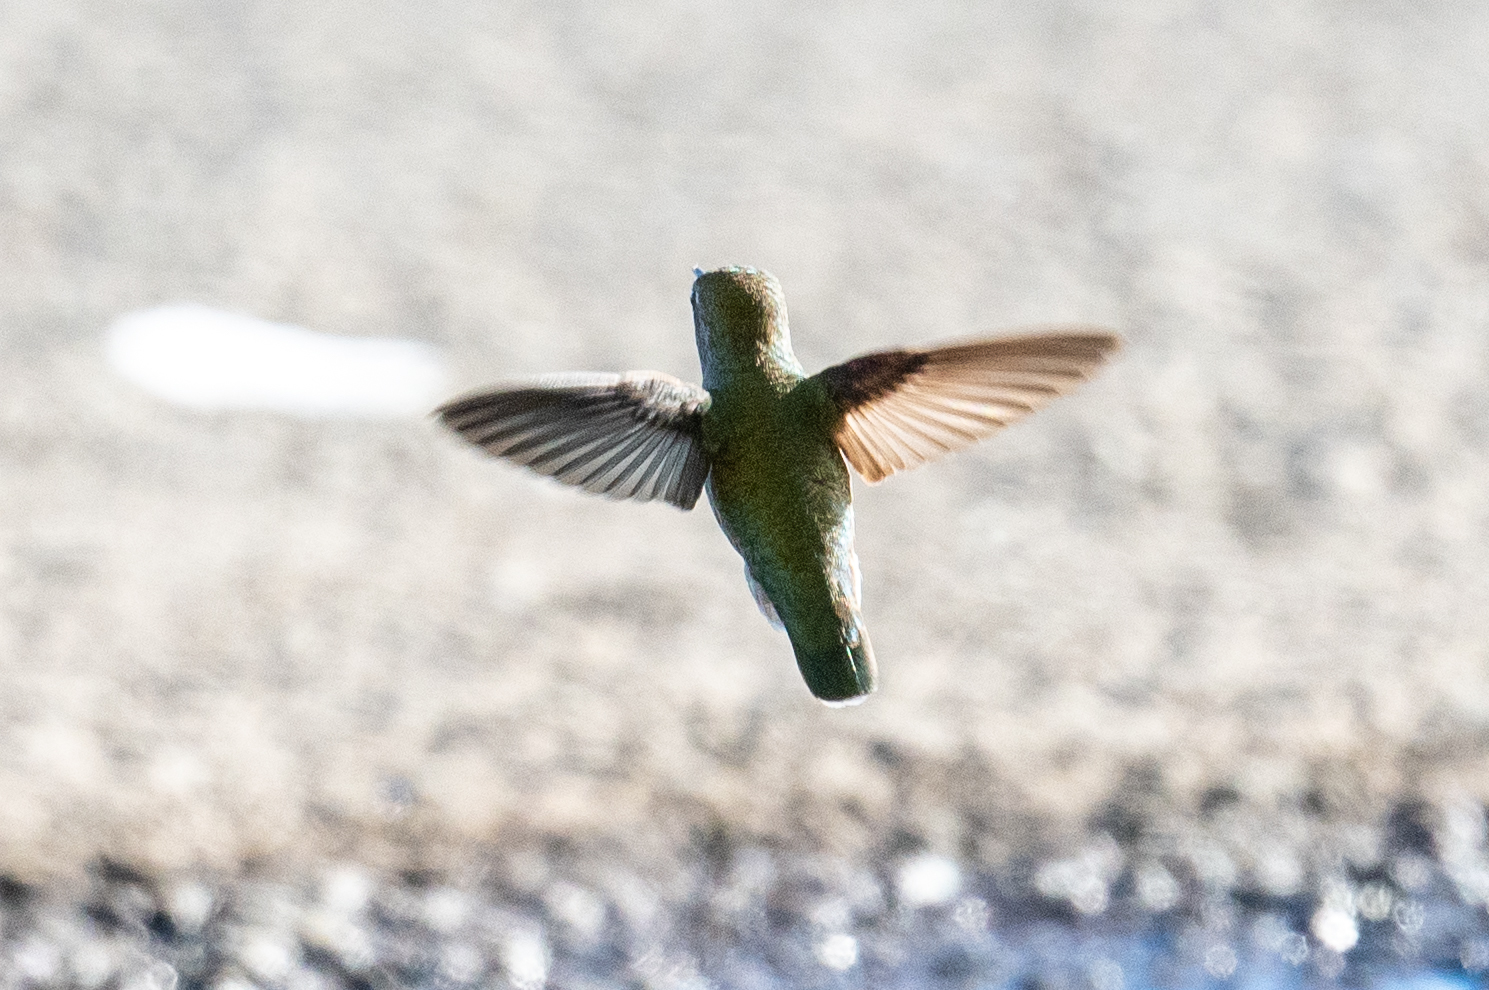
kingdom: Animalia
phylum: Chordata
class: Aves
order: Apodiformes
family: Trochilidae
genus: Calypte
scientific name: Calypte anna
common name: Anna's hummingbird
